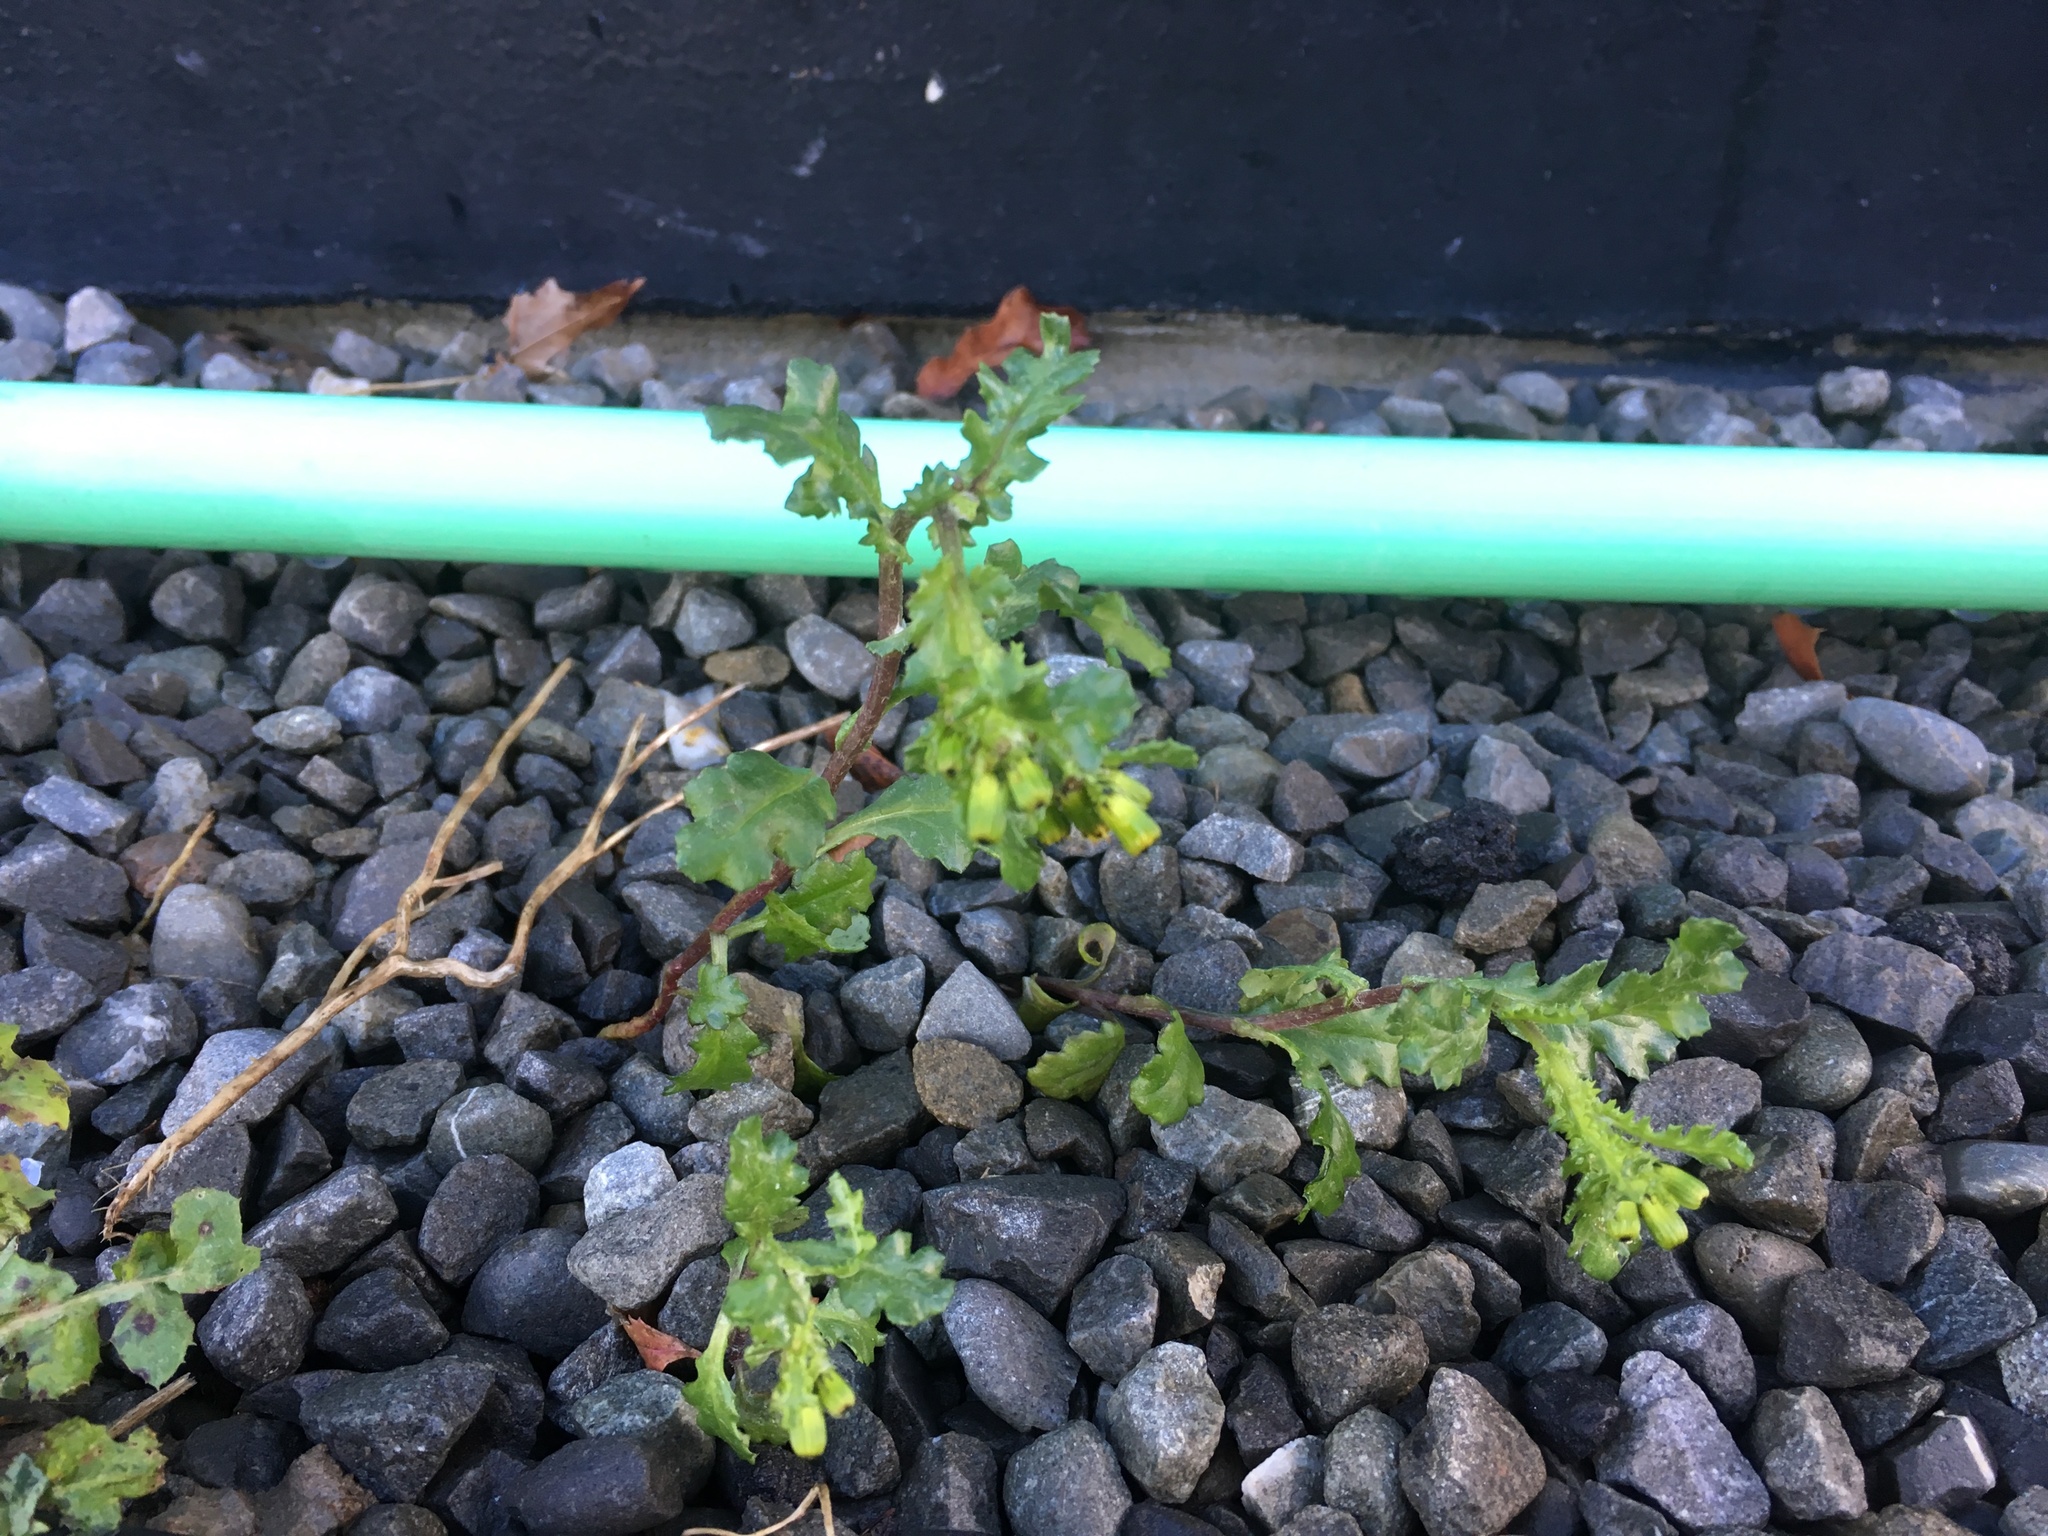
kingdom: Plantae
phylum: Tracheophyta
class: Magnoliopsida
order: Asterales
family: Asteraceae
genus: Senecio
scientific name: Senecio vulgaris
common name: Old-man-in-the-spring
